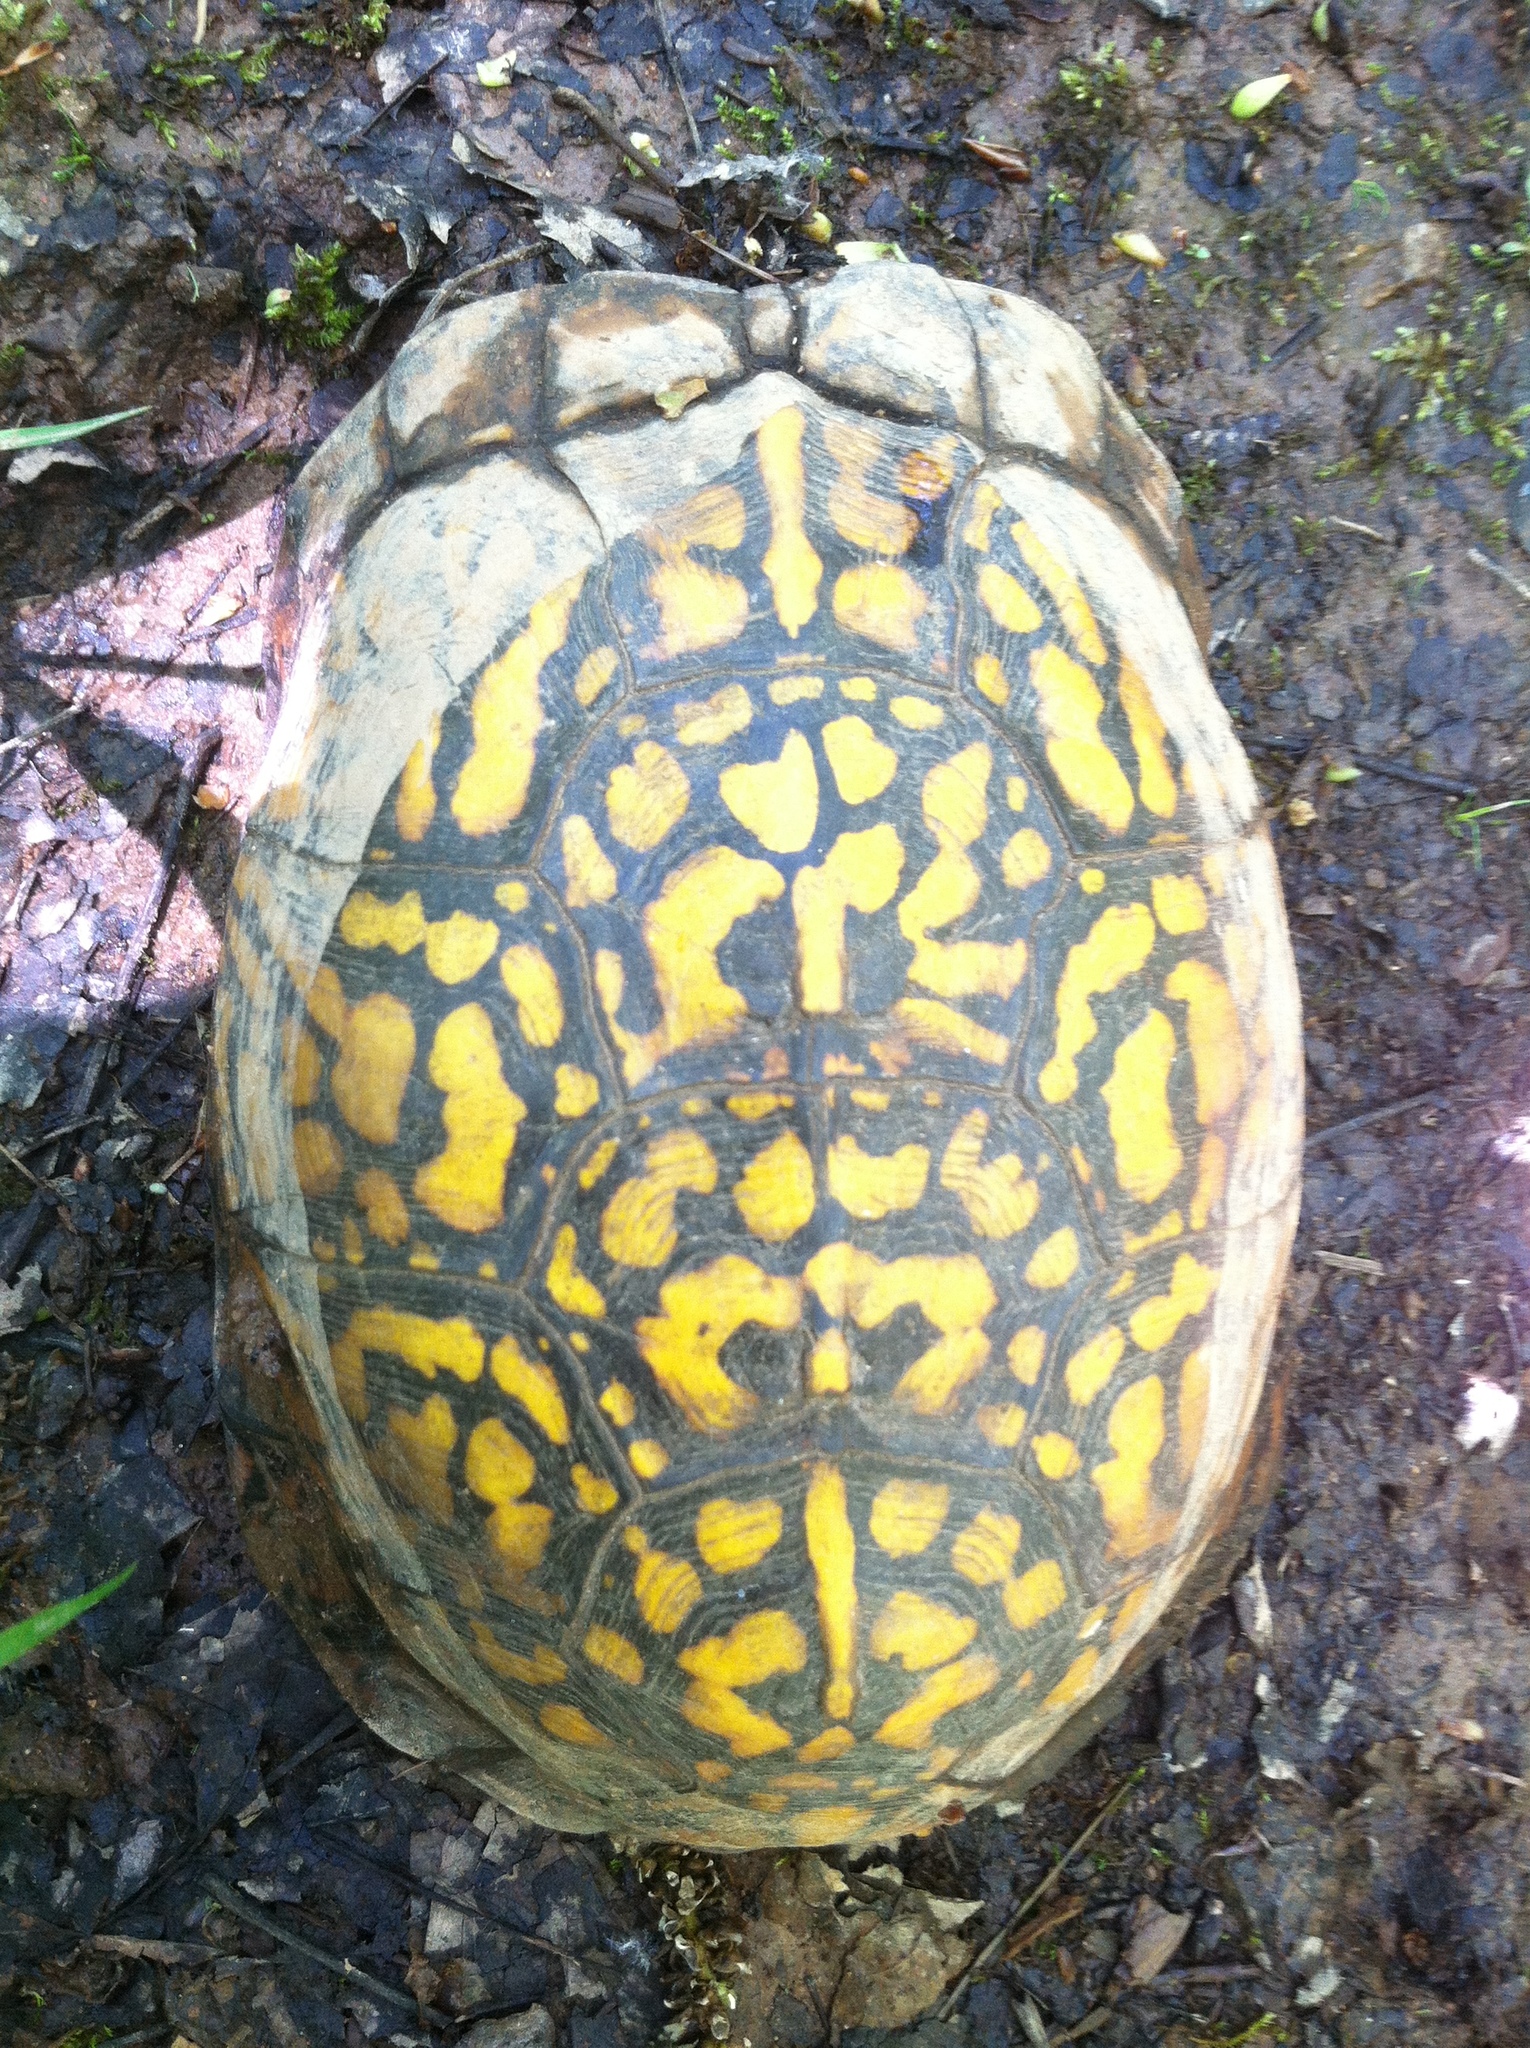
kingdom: Animalia
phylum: Chordata
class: Testudines
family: Emydidae
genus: Terrapene
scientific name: Terrapene carolina
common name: Common box turtle
